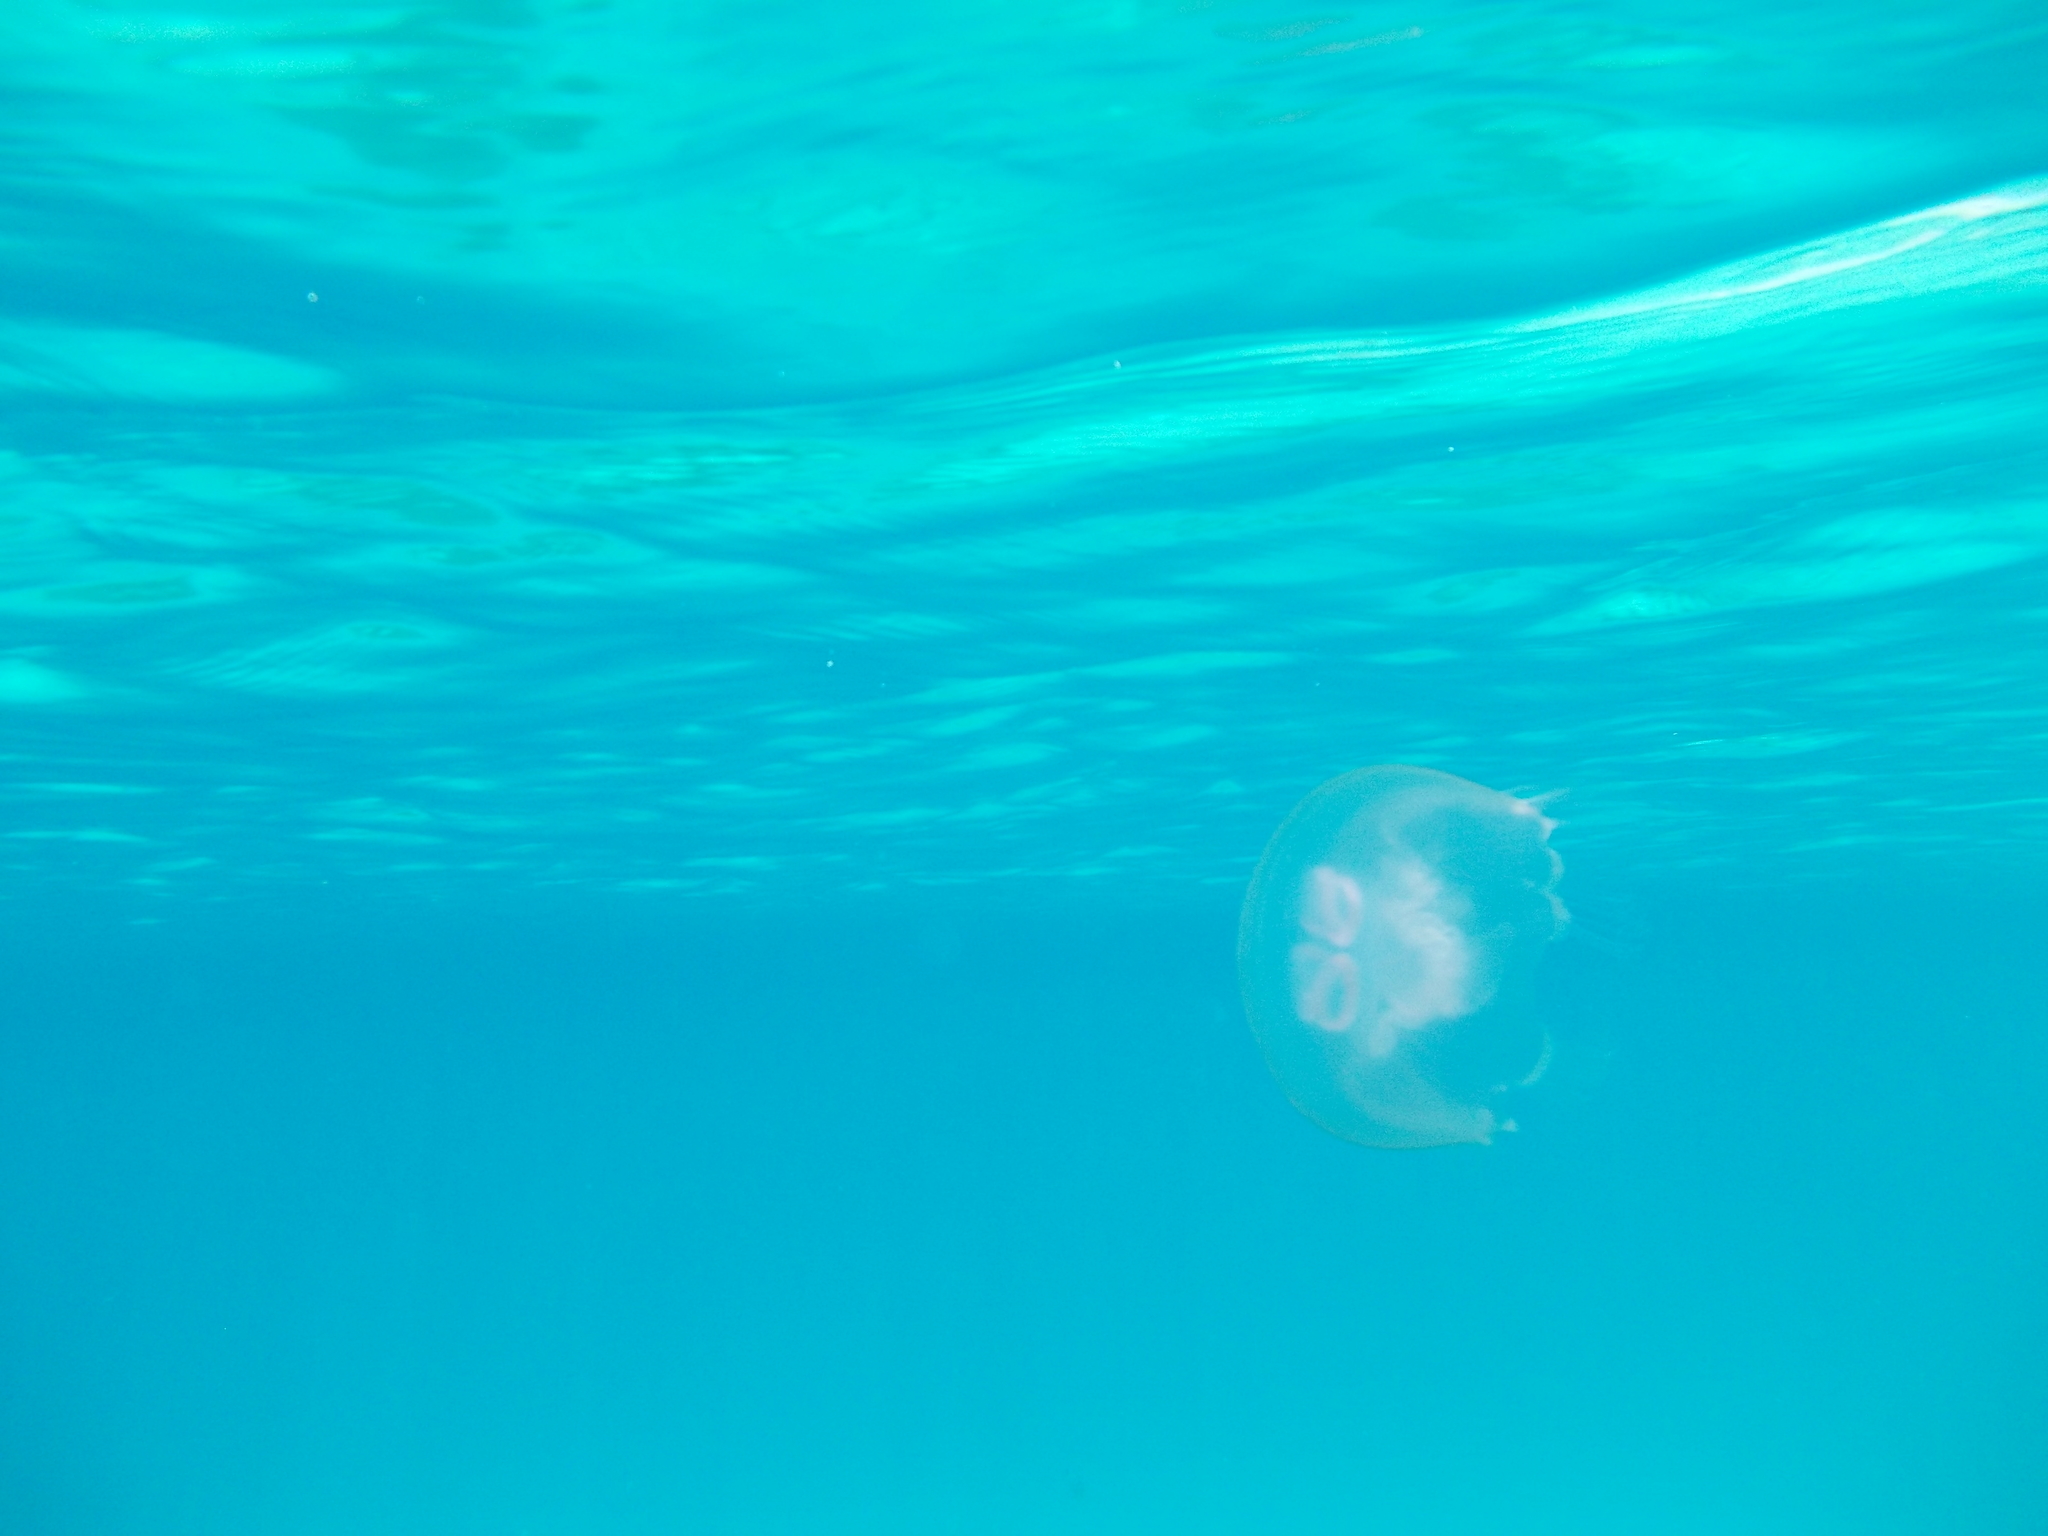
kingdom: Animalia
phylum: Cnidaria
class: Scyphozoa
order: Semaeostomeae
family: Ulmaridae
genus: Aurelia
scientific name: Aurelia
